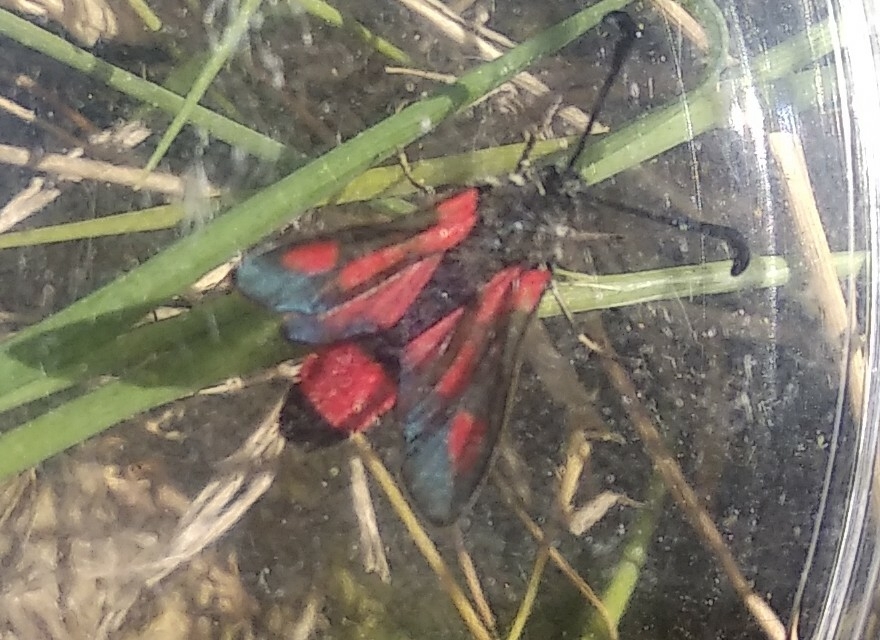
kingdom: Animalia
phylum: Arthropoda
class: Insecta
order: Lepidoptera
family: Zygaenidae
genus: Zygaena
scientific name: Zygaena sarpedon
